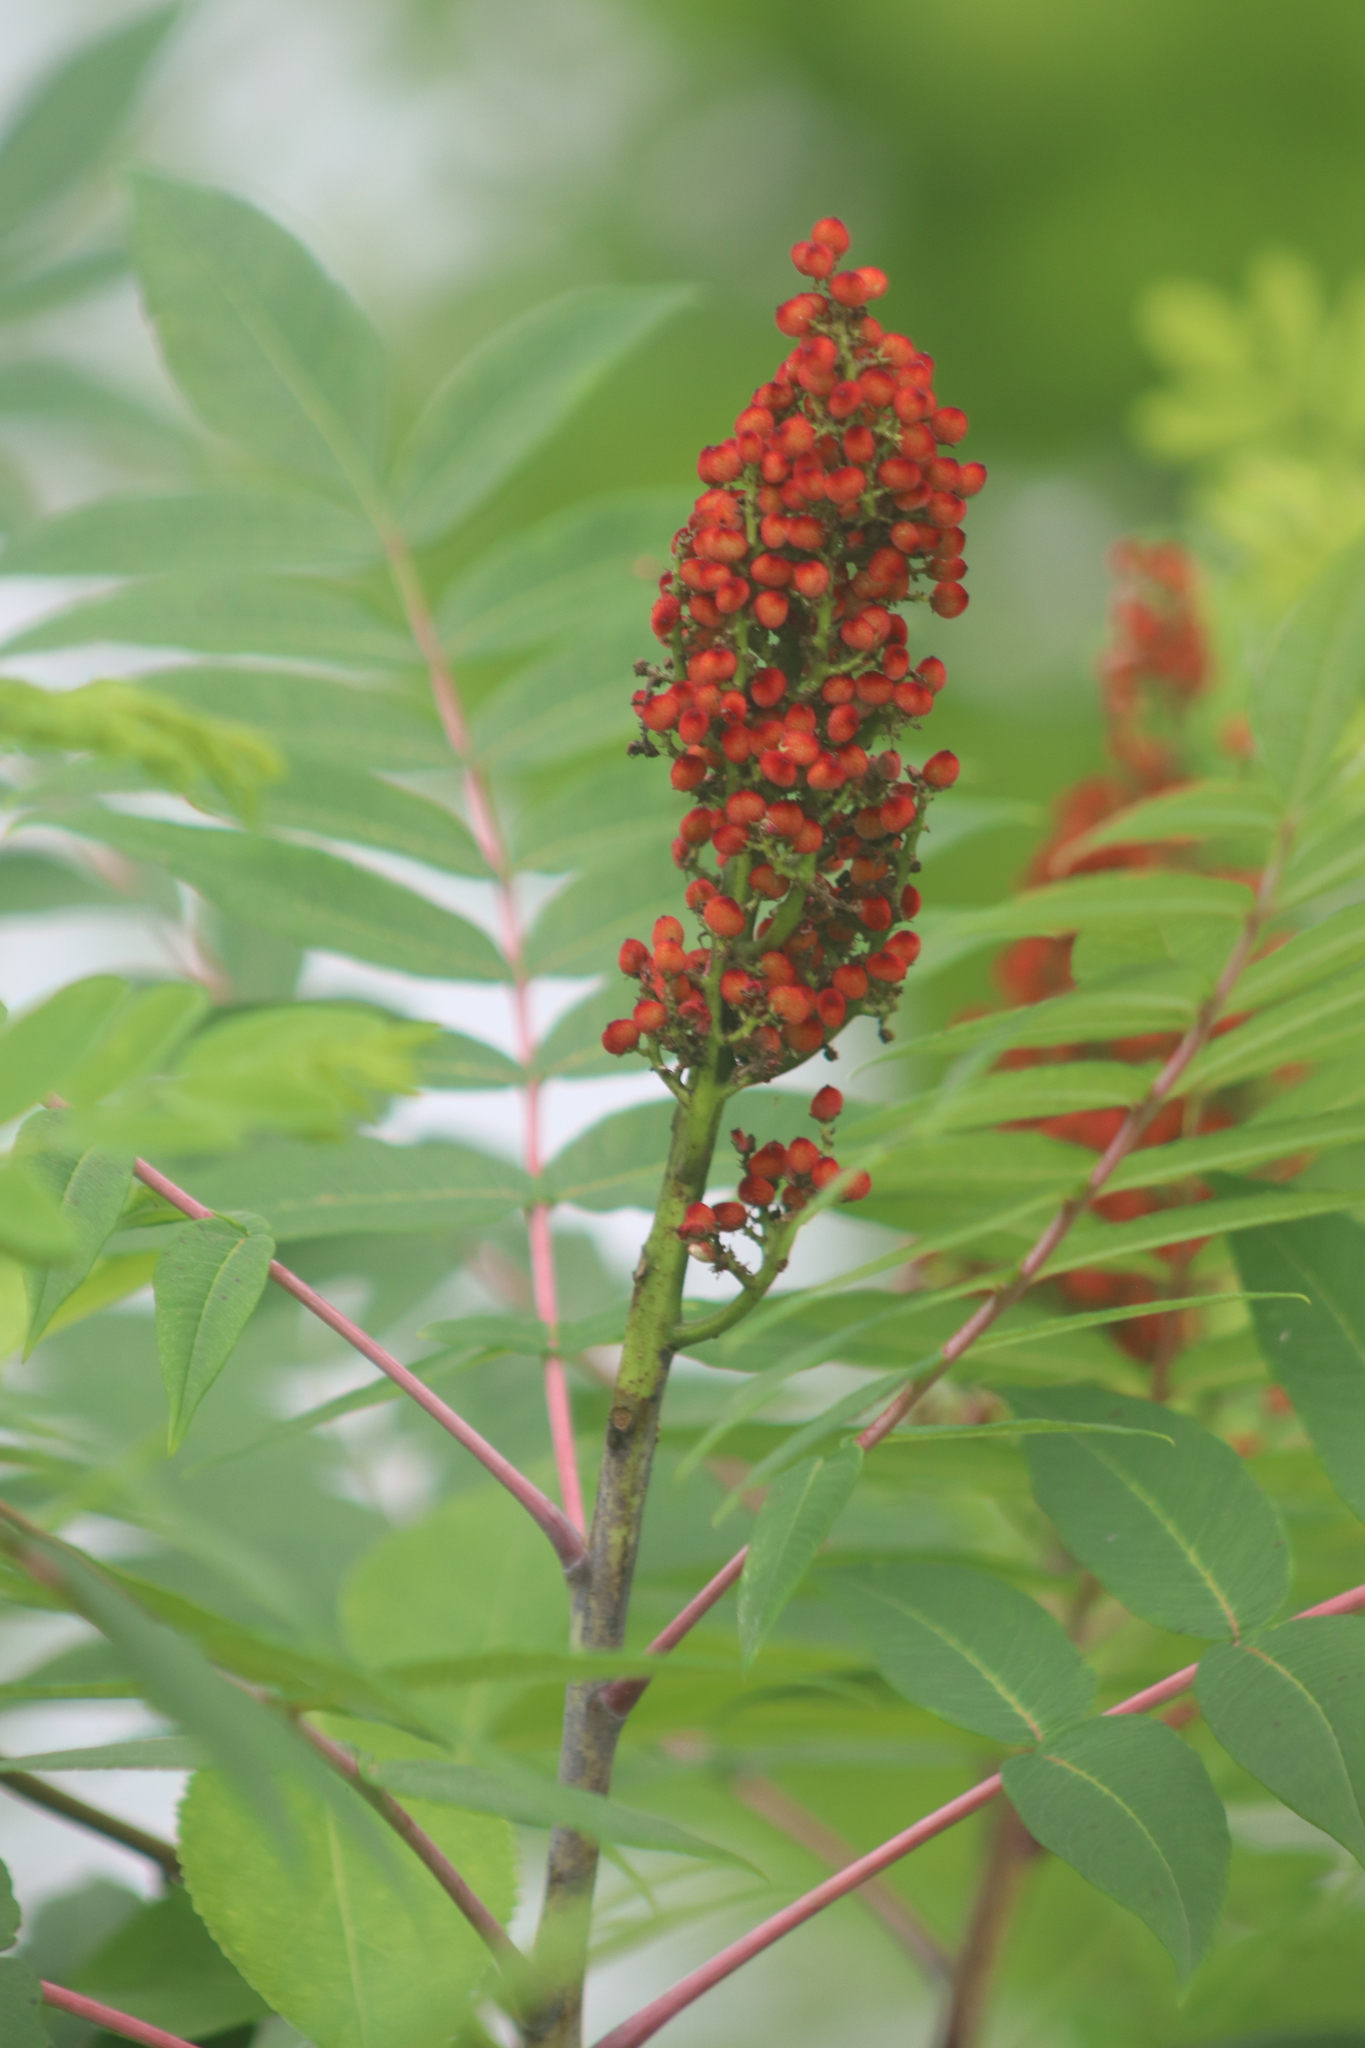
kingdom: Plantae
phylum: Tracheophyta
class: Magnoliopsida
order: Sapindales
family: Anacardiaceae
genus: Rhus
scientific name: Rhus glabra
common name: Scarlet sumac
